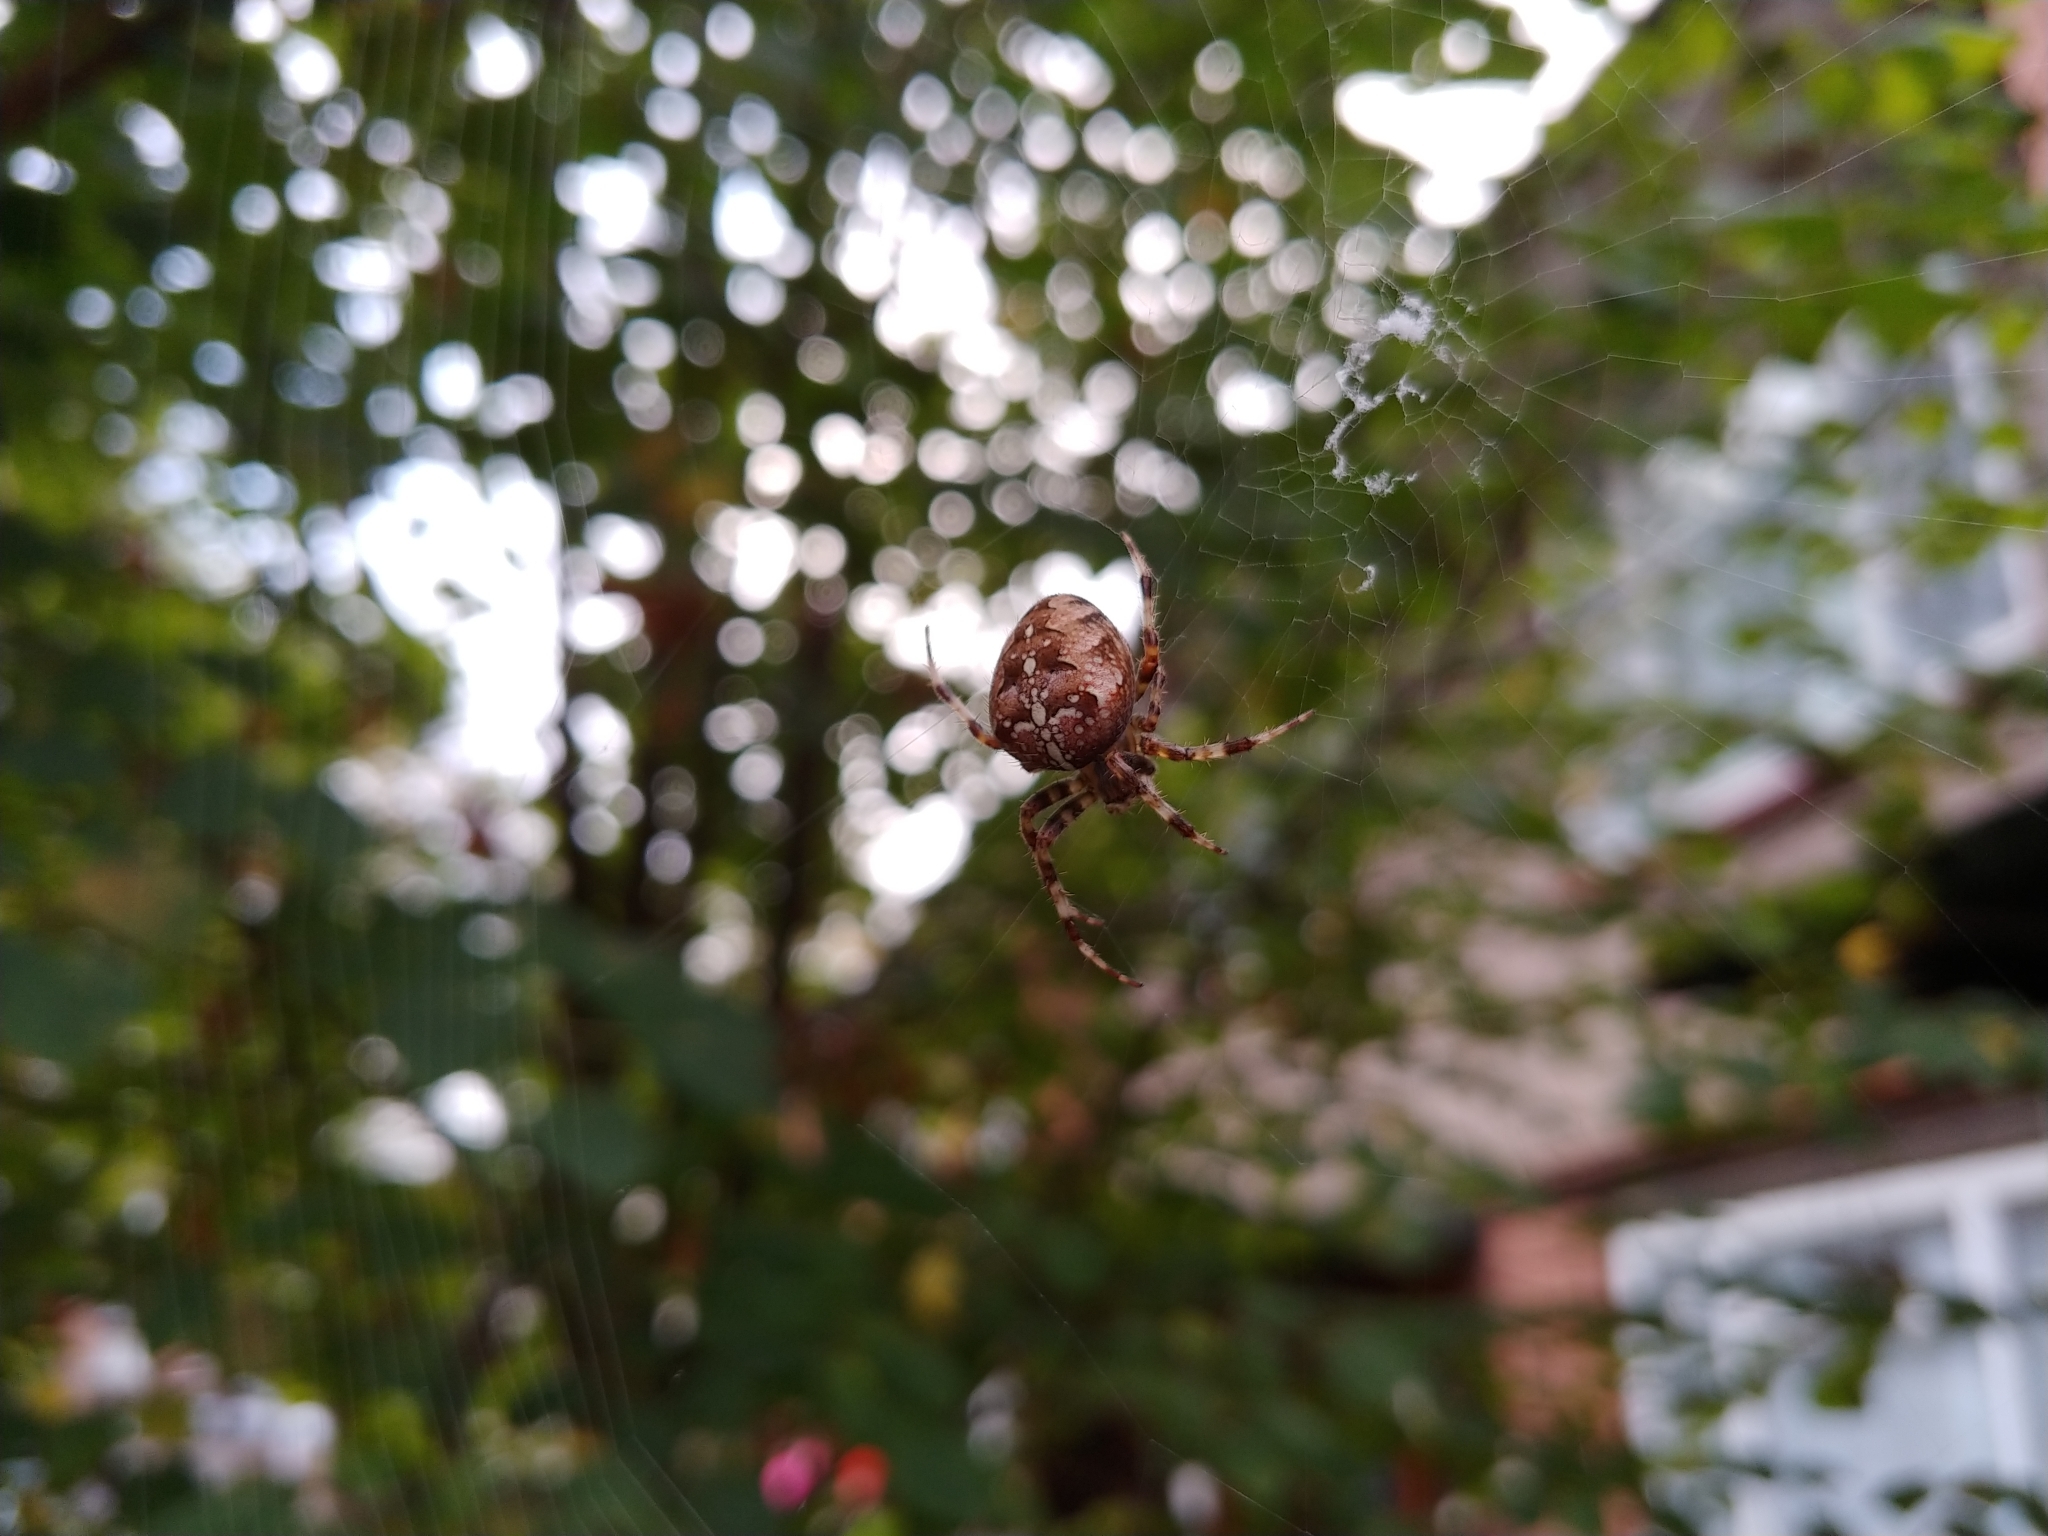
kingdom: Animalia
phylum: Arthropoda
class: Arachnida
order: Araneae
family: Araneidae
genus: Araneus
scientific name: Araneus diadematus
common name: Cross orbweaver
